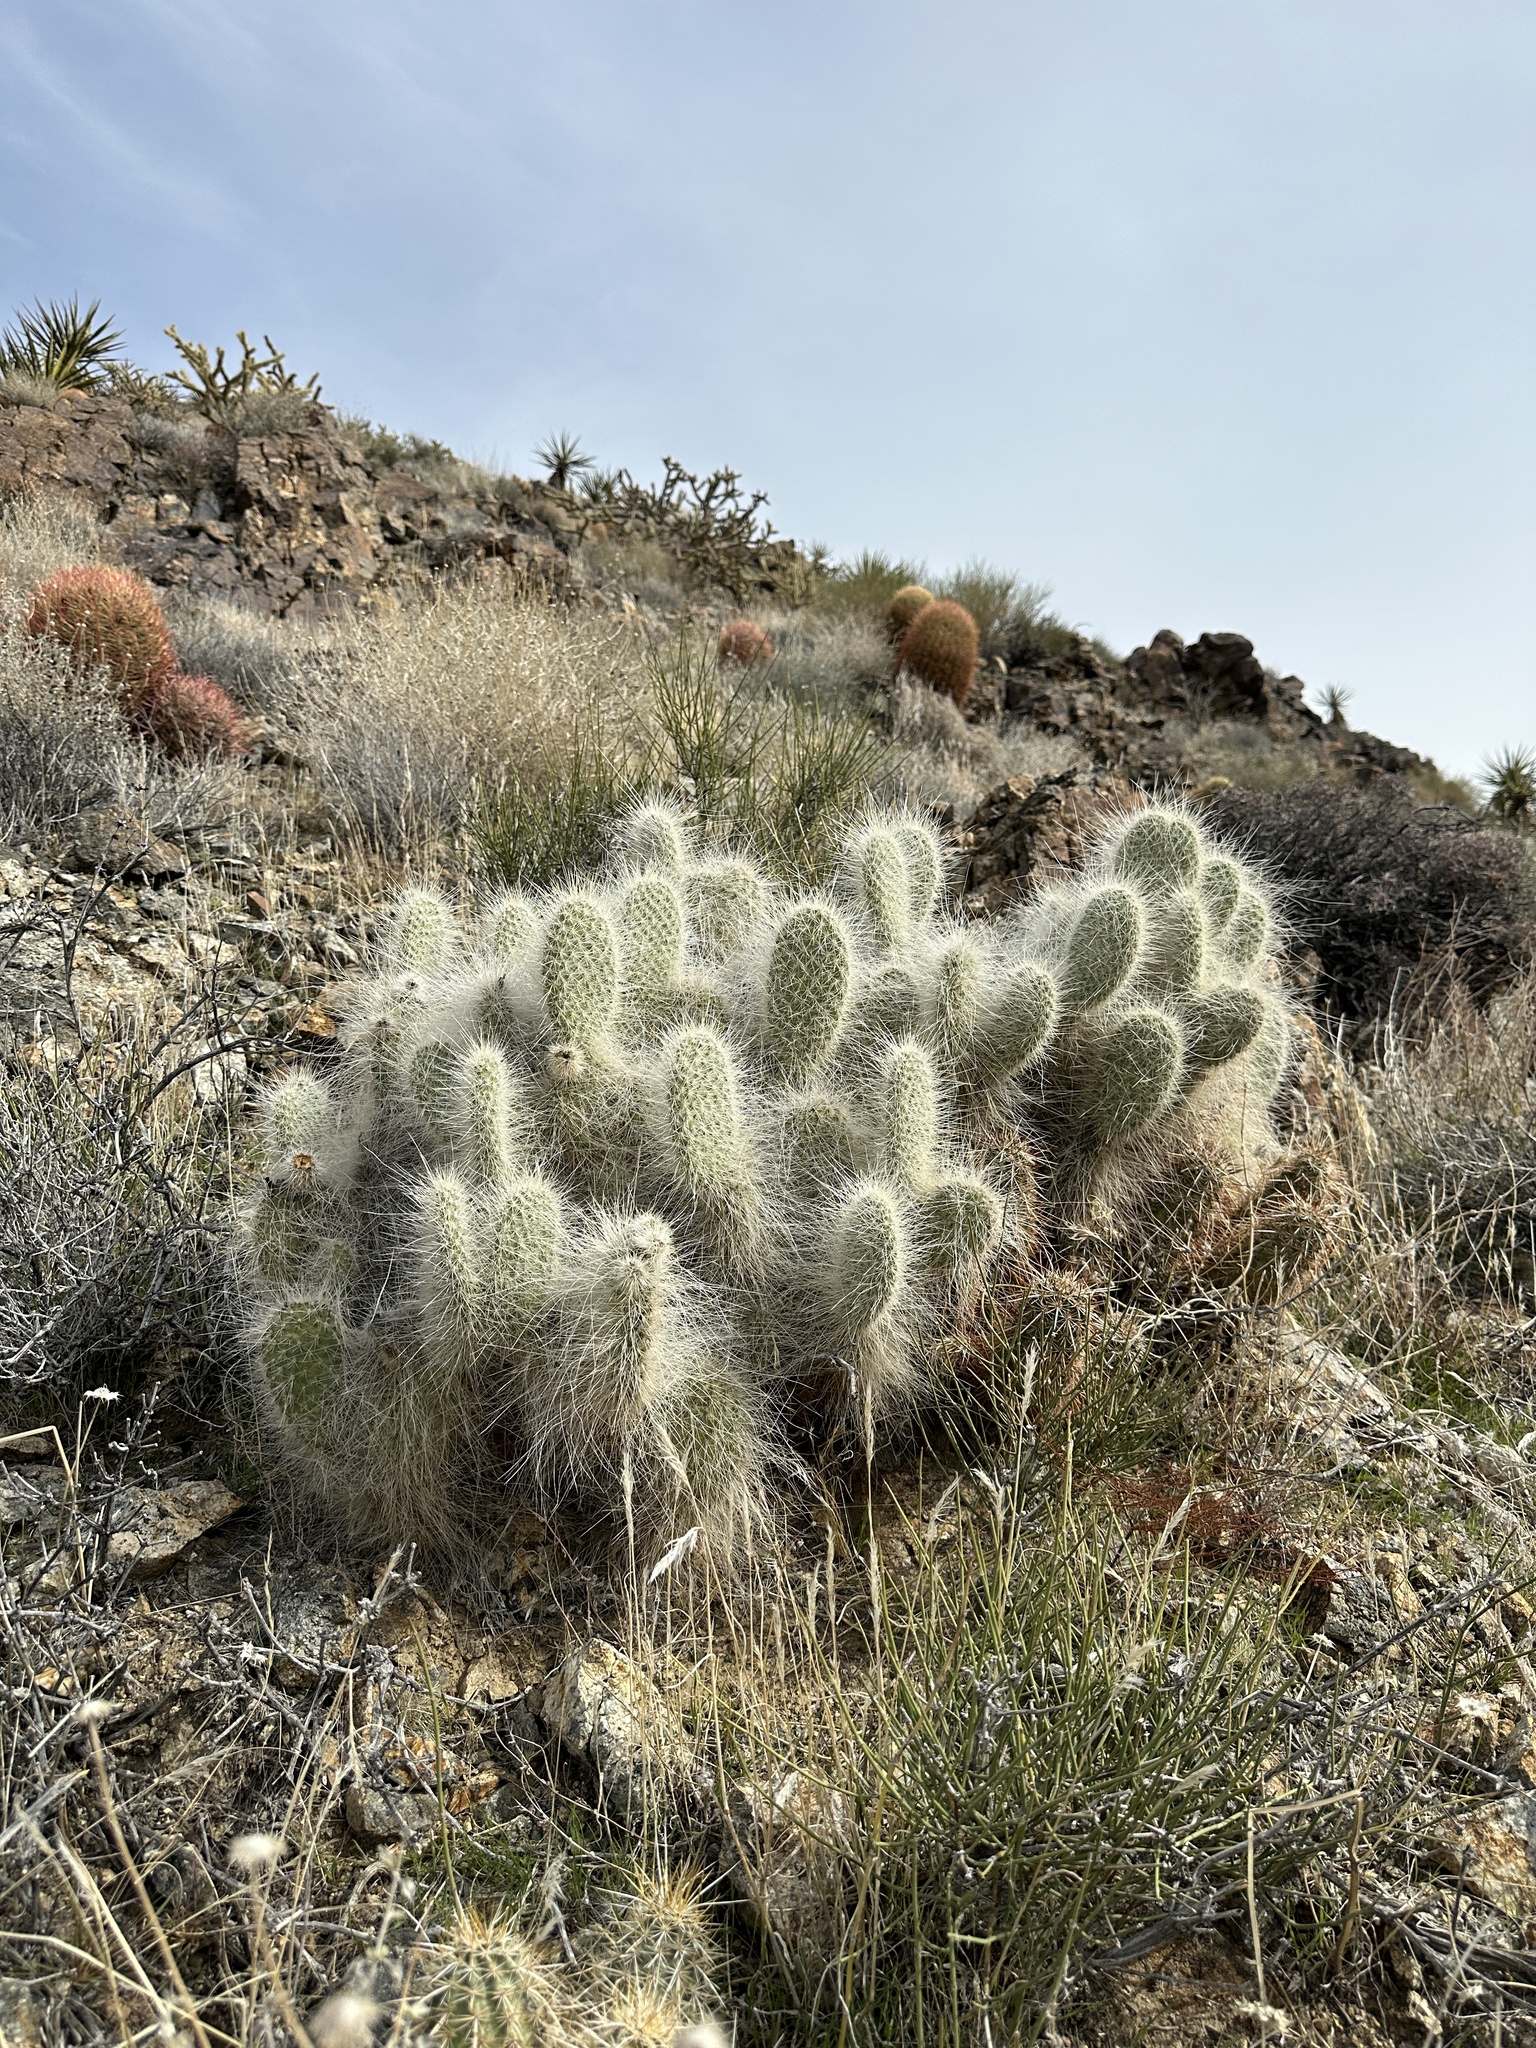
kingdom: Plantae
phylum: Tracheophyta
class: Magnoliopsida
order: Caryophyllales
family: Cactaceae
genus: Opuntia
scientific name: Opuntia polyacantha
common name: Plains prickly-pear
